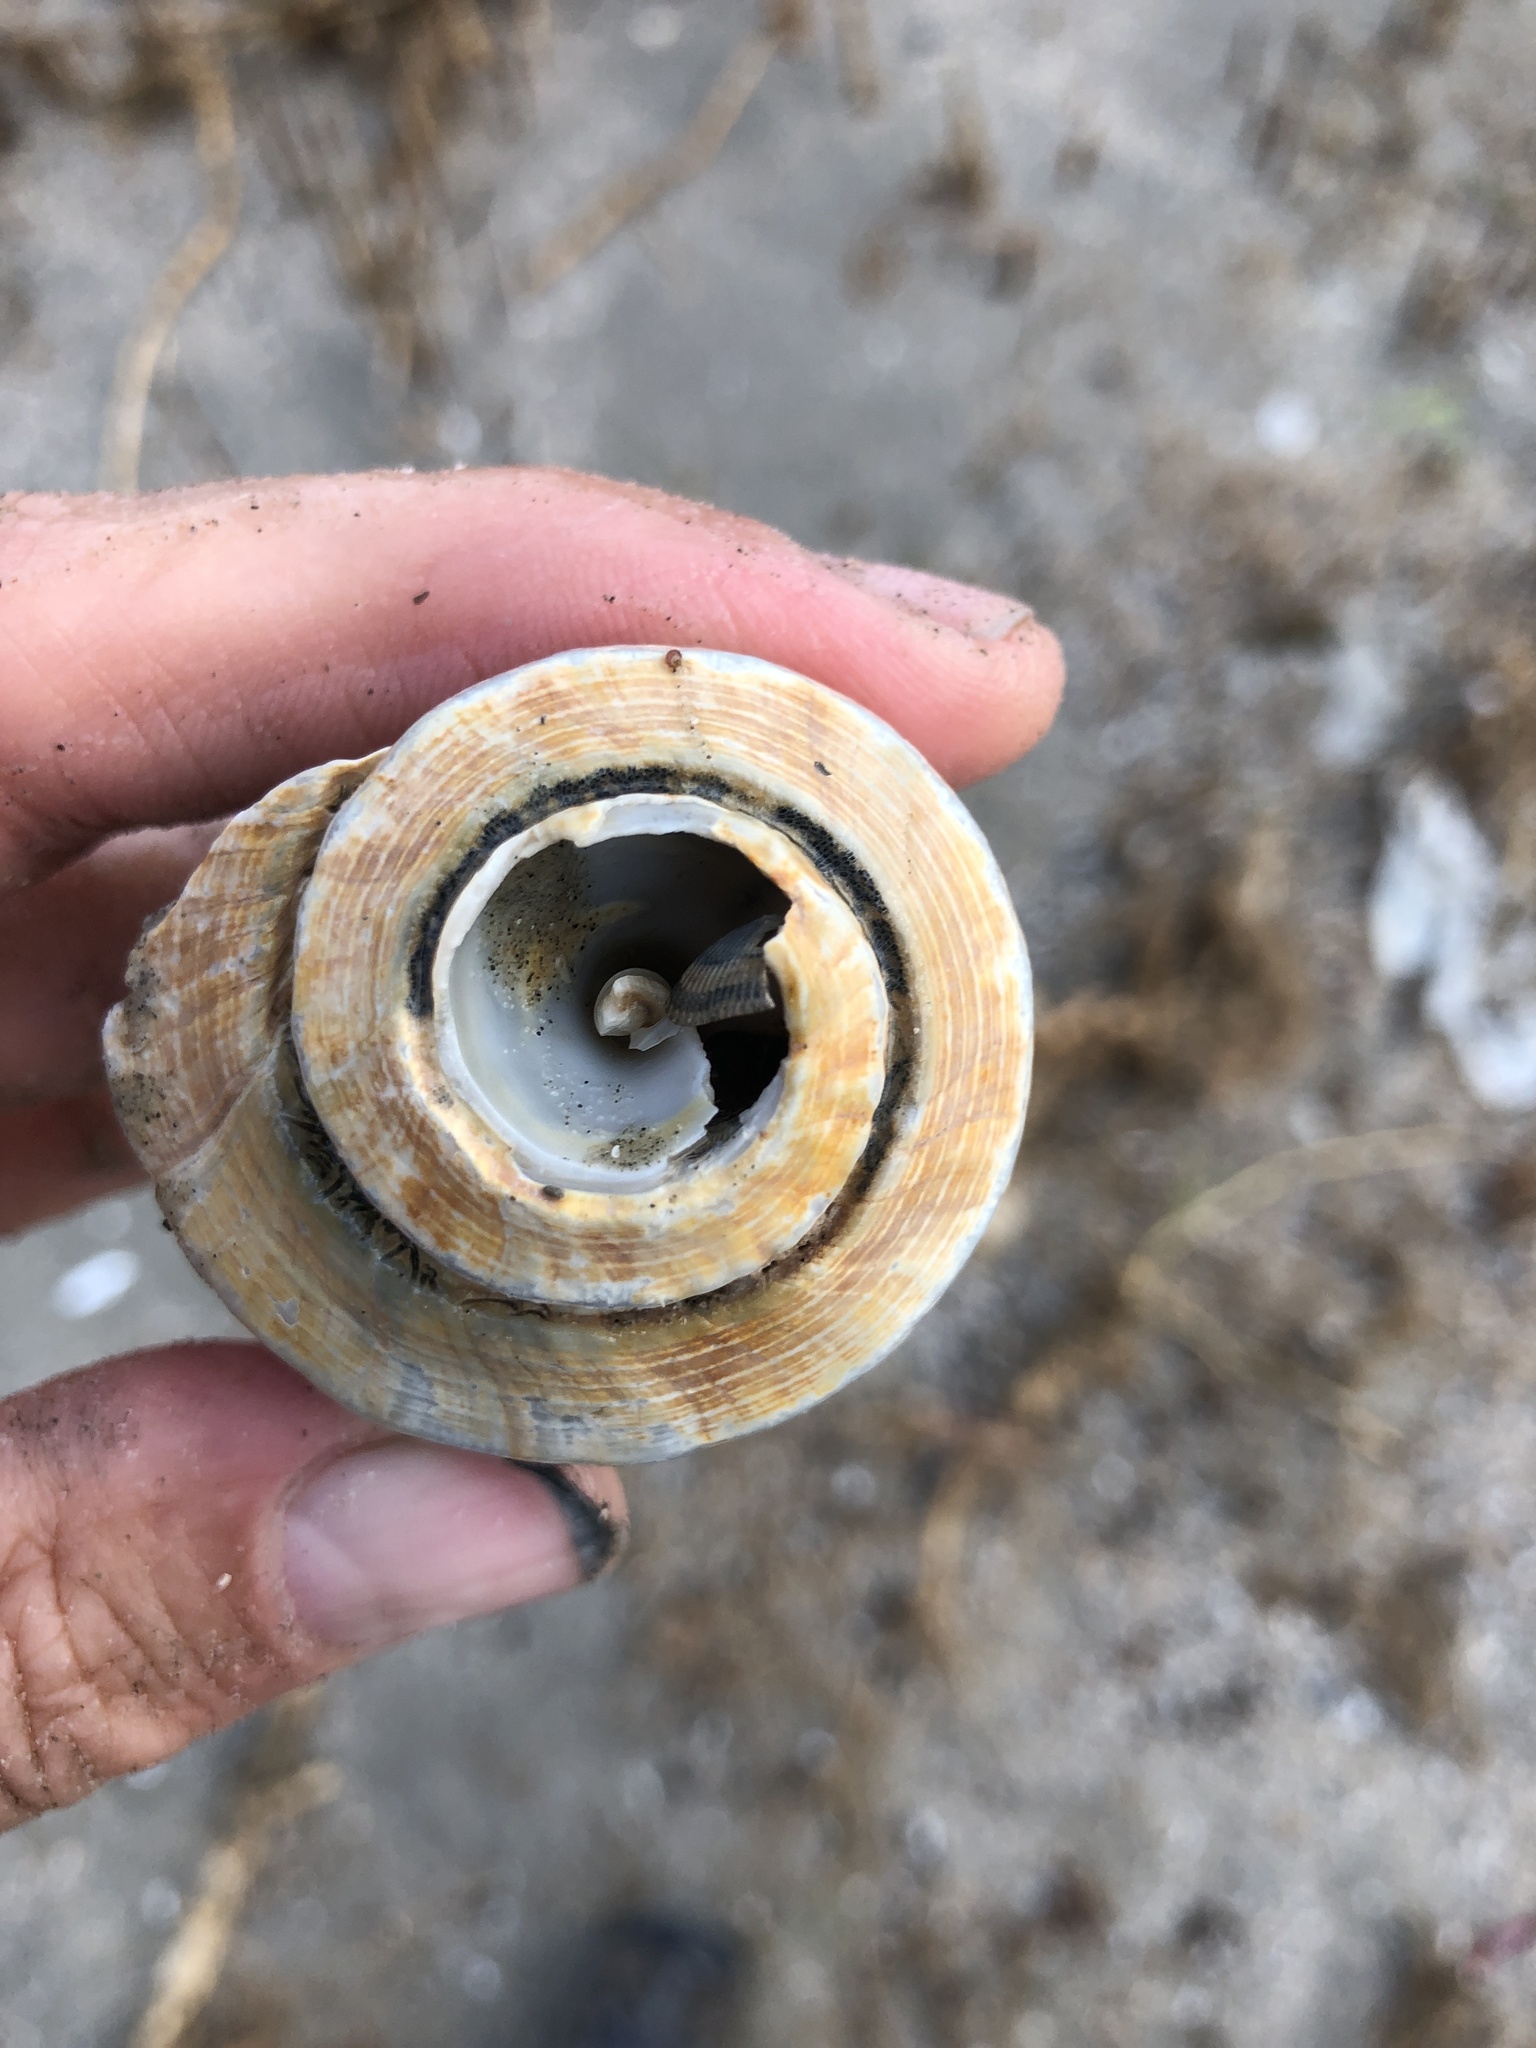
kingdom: Animalia
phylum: Mollusca
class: Gastropoda
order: Neogastropoda
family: Busyconidae
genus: Fulguropsis
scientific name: Fulguropsis plagosa
